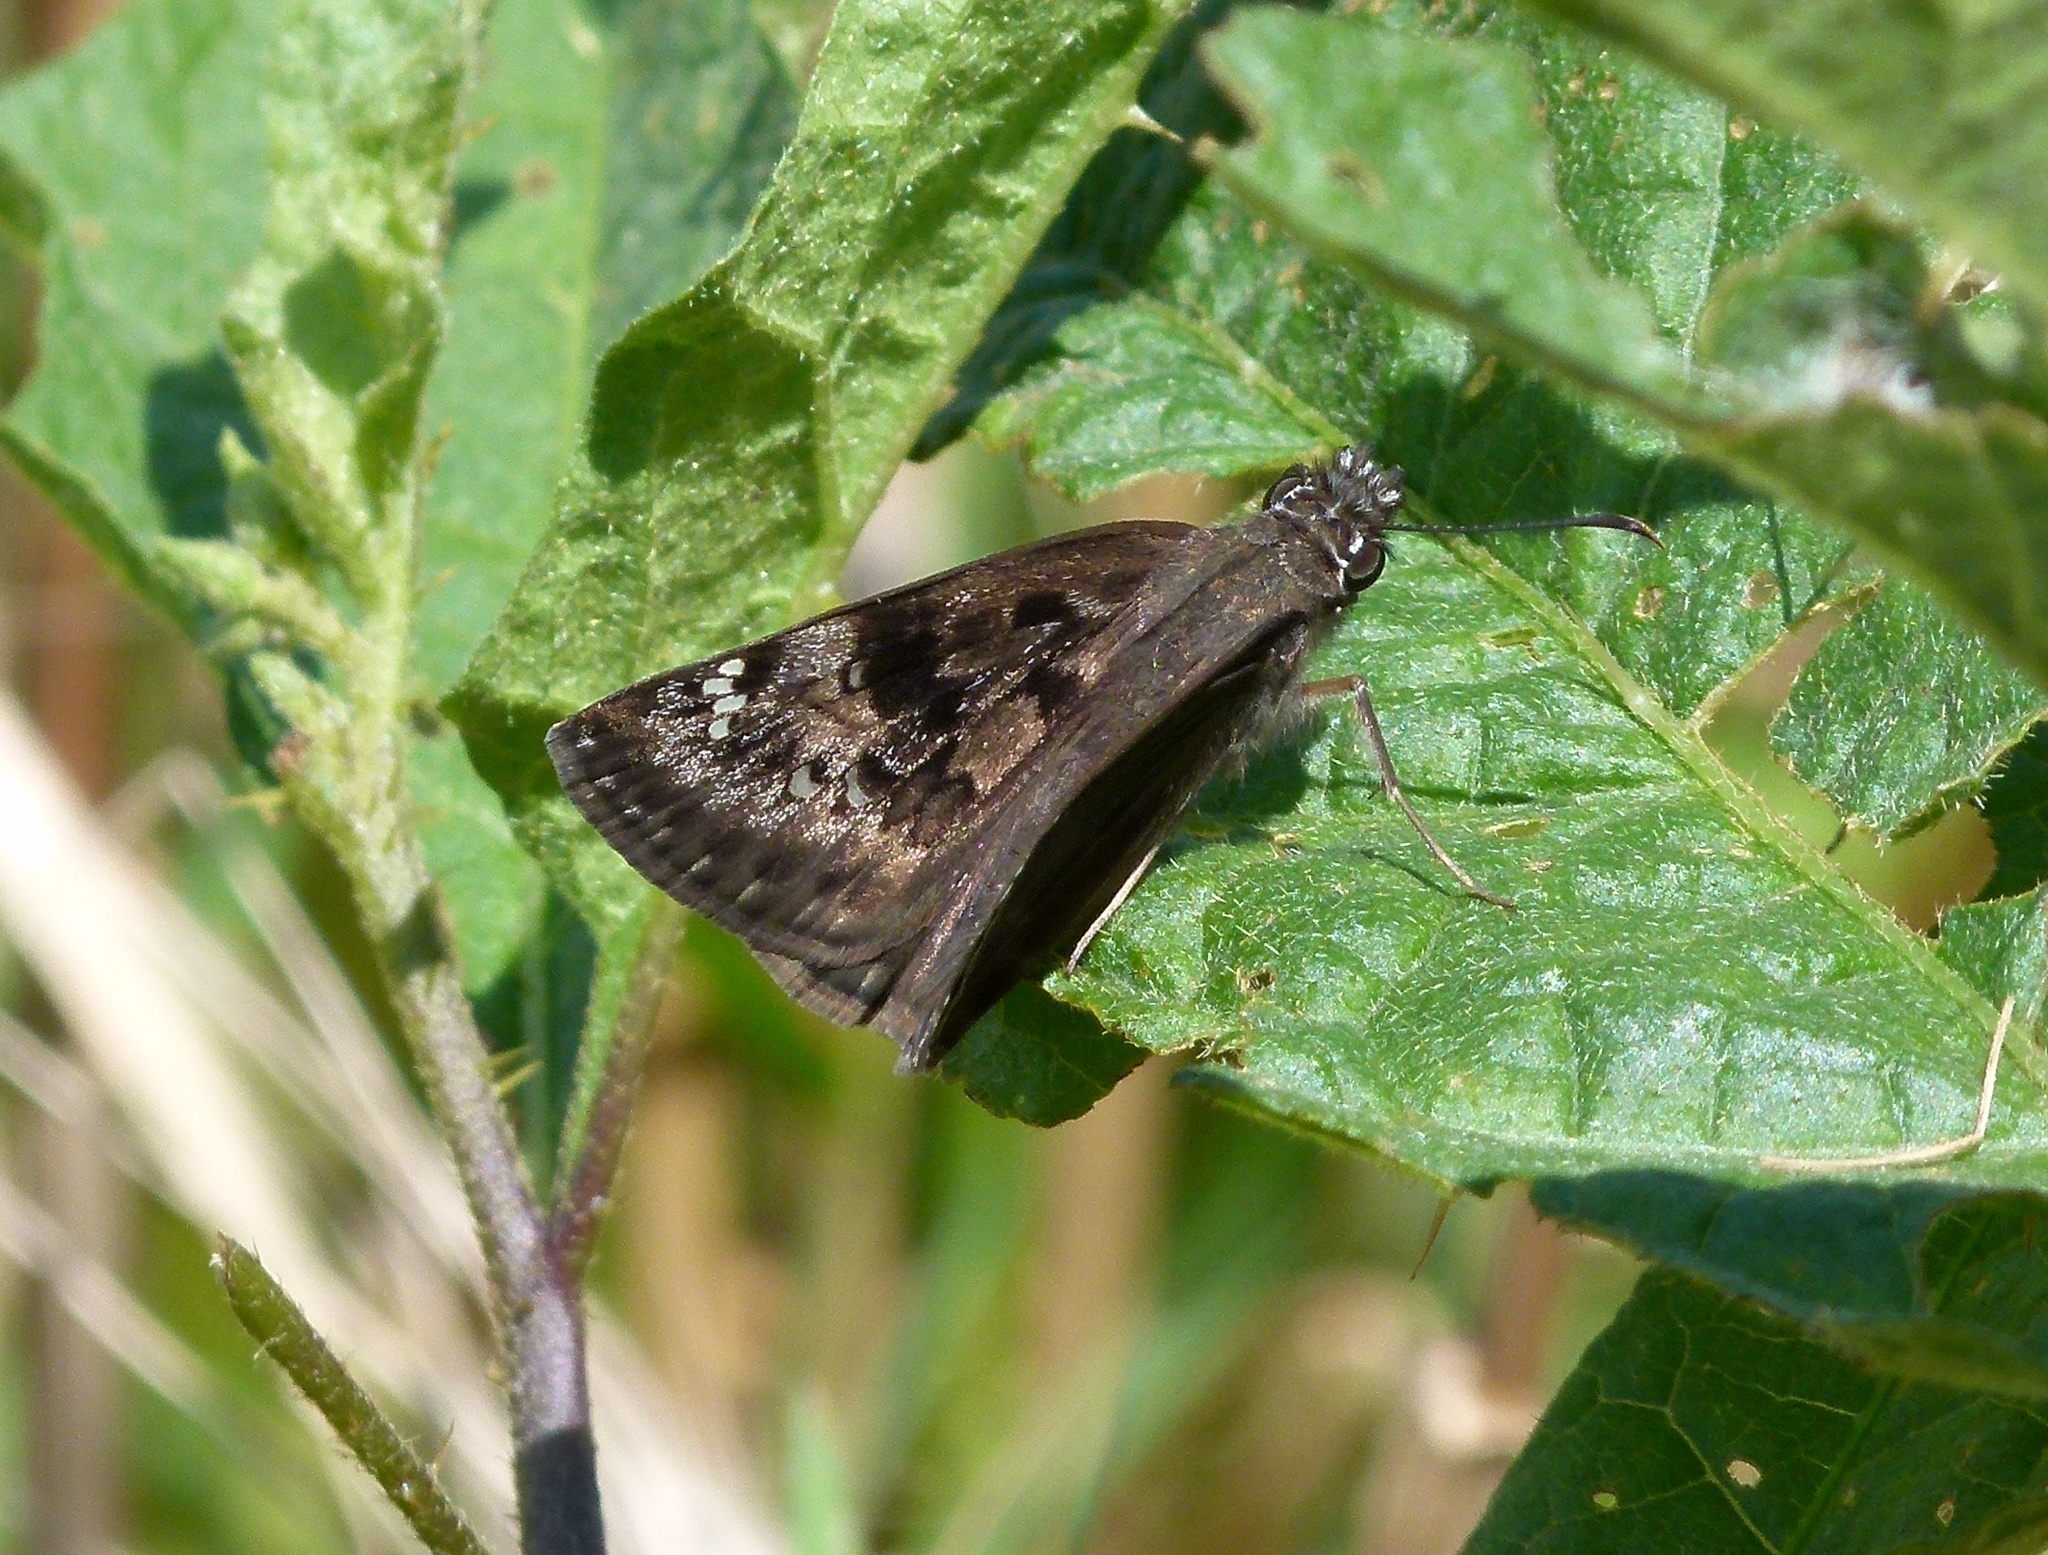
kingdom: Animalia
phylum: Arthropoda
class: Insecta
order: Lepidoptera
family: Hesperiidae
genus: Erynnis
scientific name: Erynnis horatius
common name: Horace's duskywing
